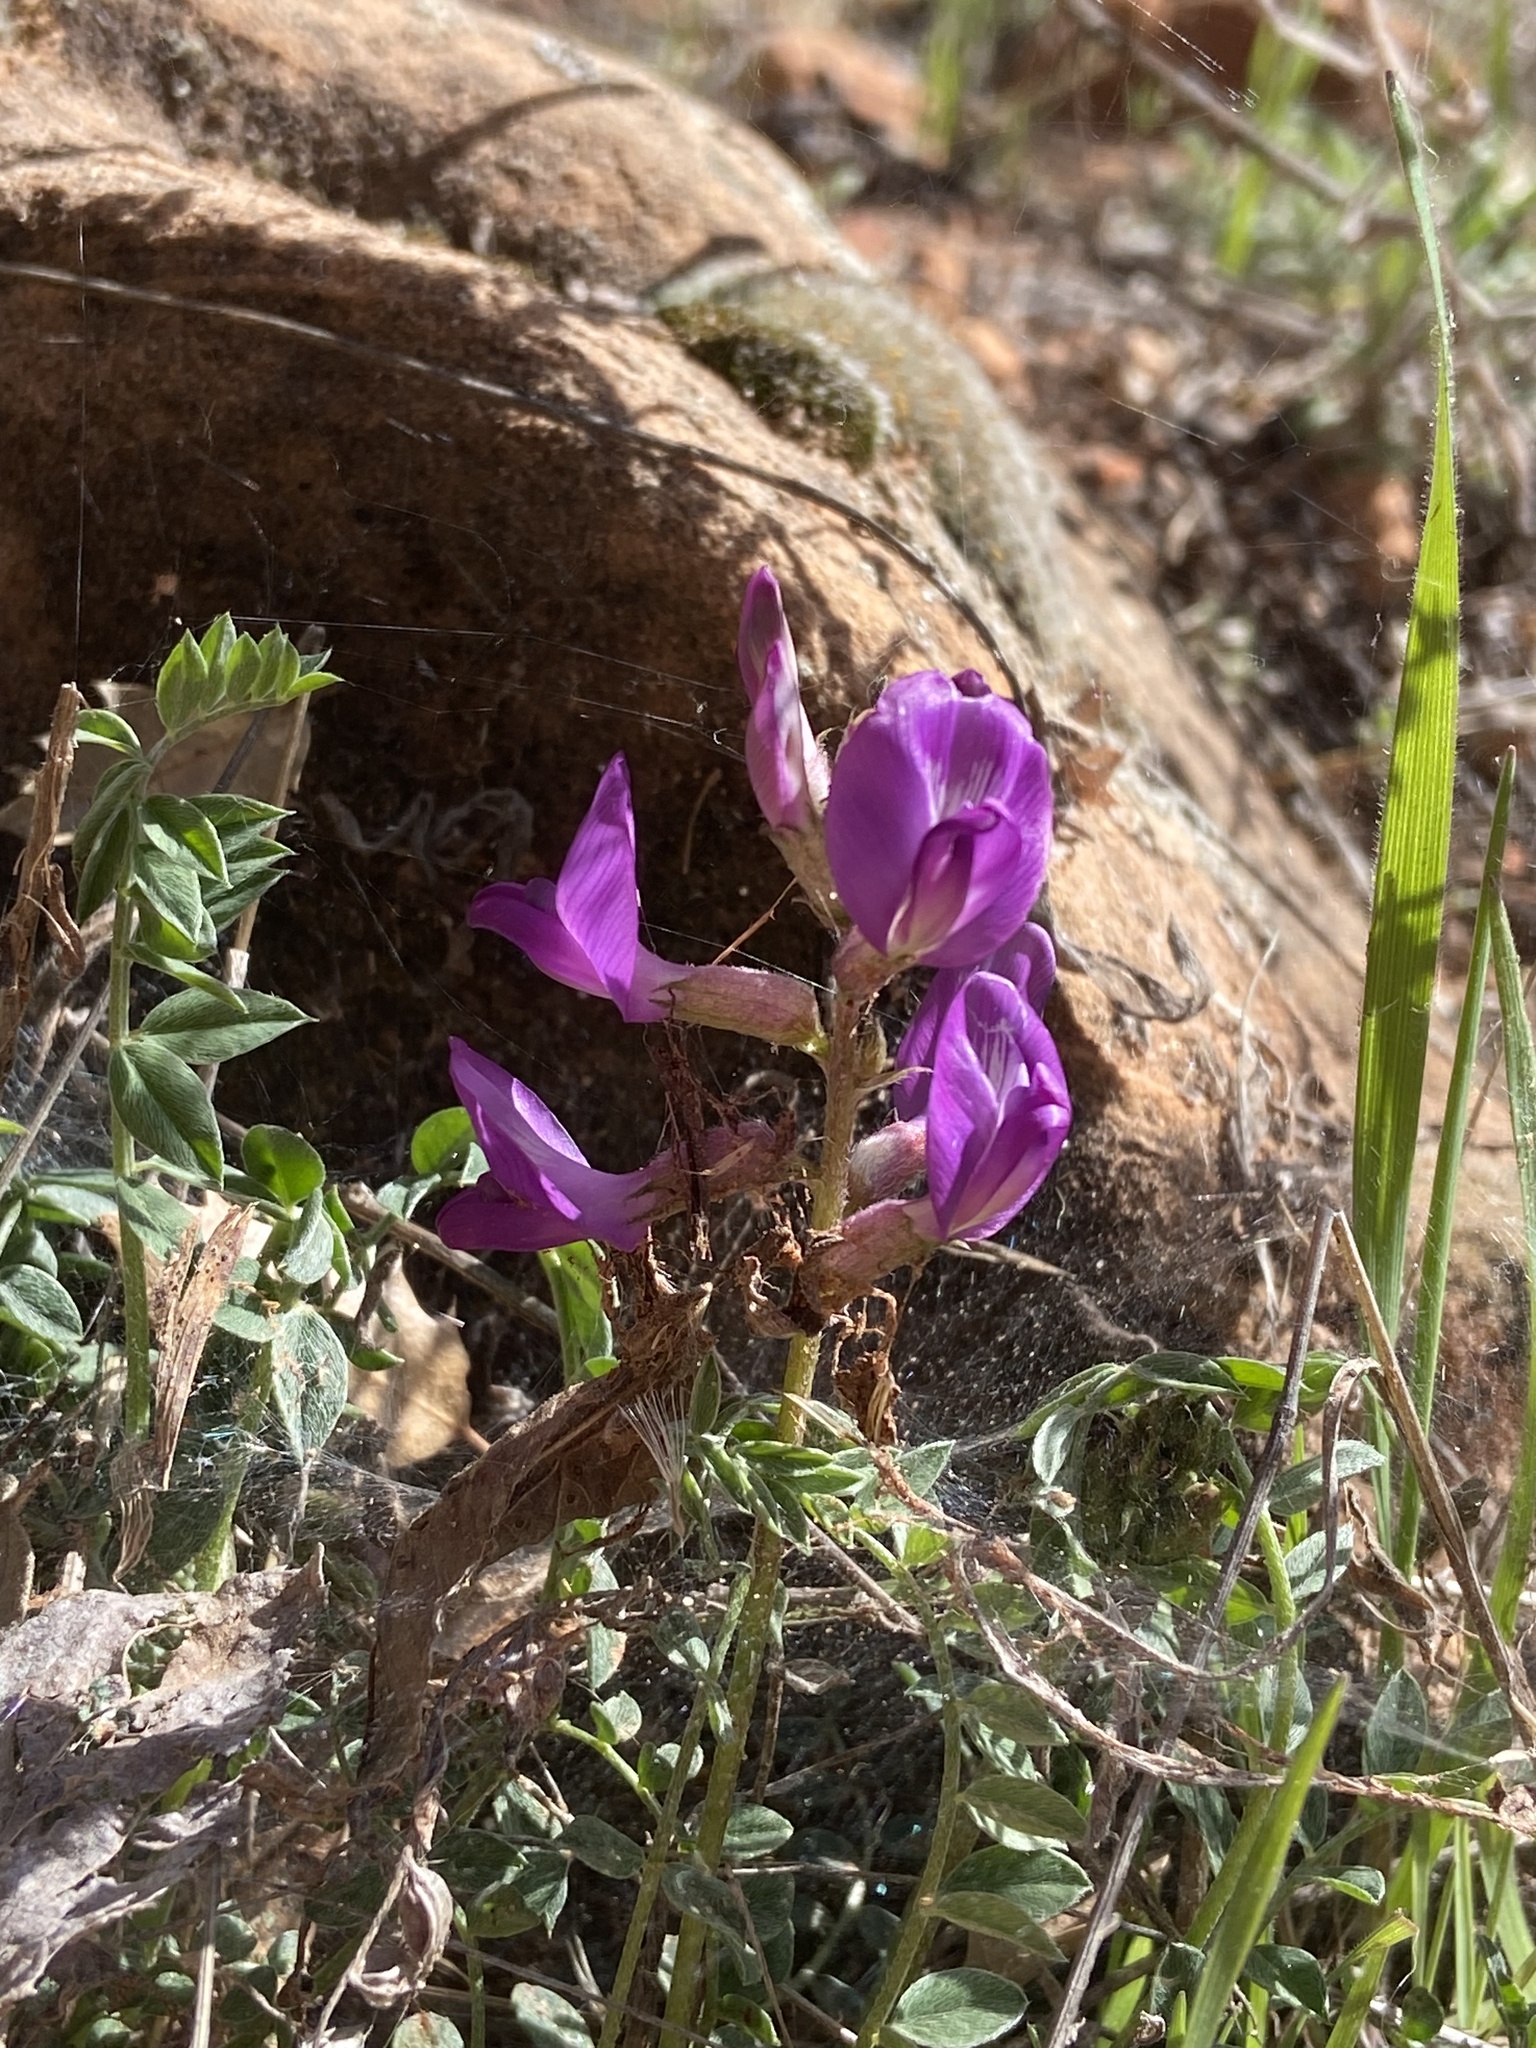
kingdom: Plantae
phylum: Tracheophyta
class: Magnoliopsida
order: Fabales
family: Fabaceae
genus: Astragalus
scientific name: Astragalus zionis
